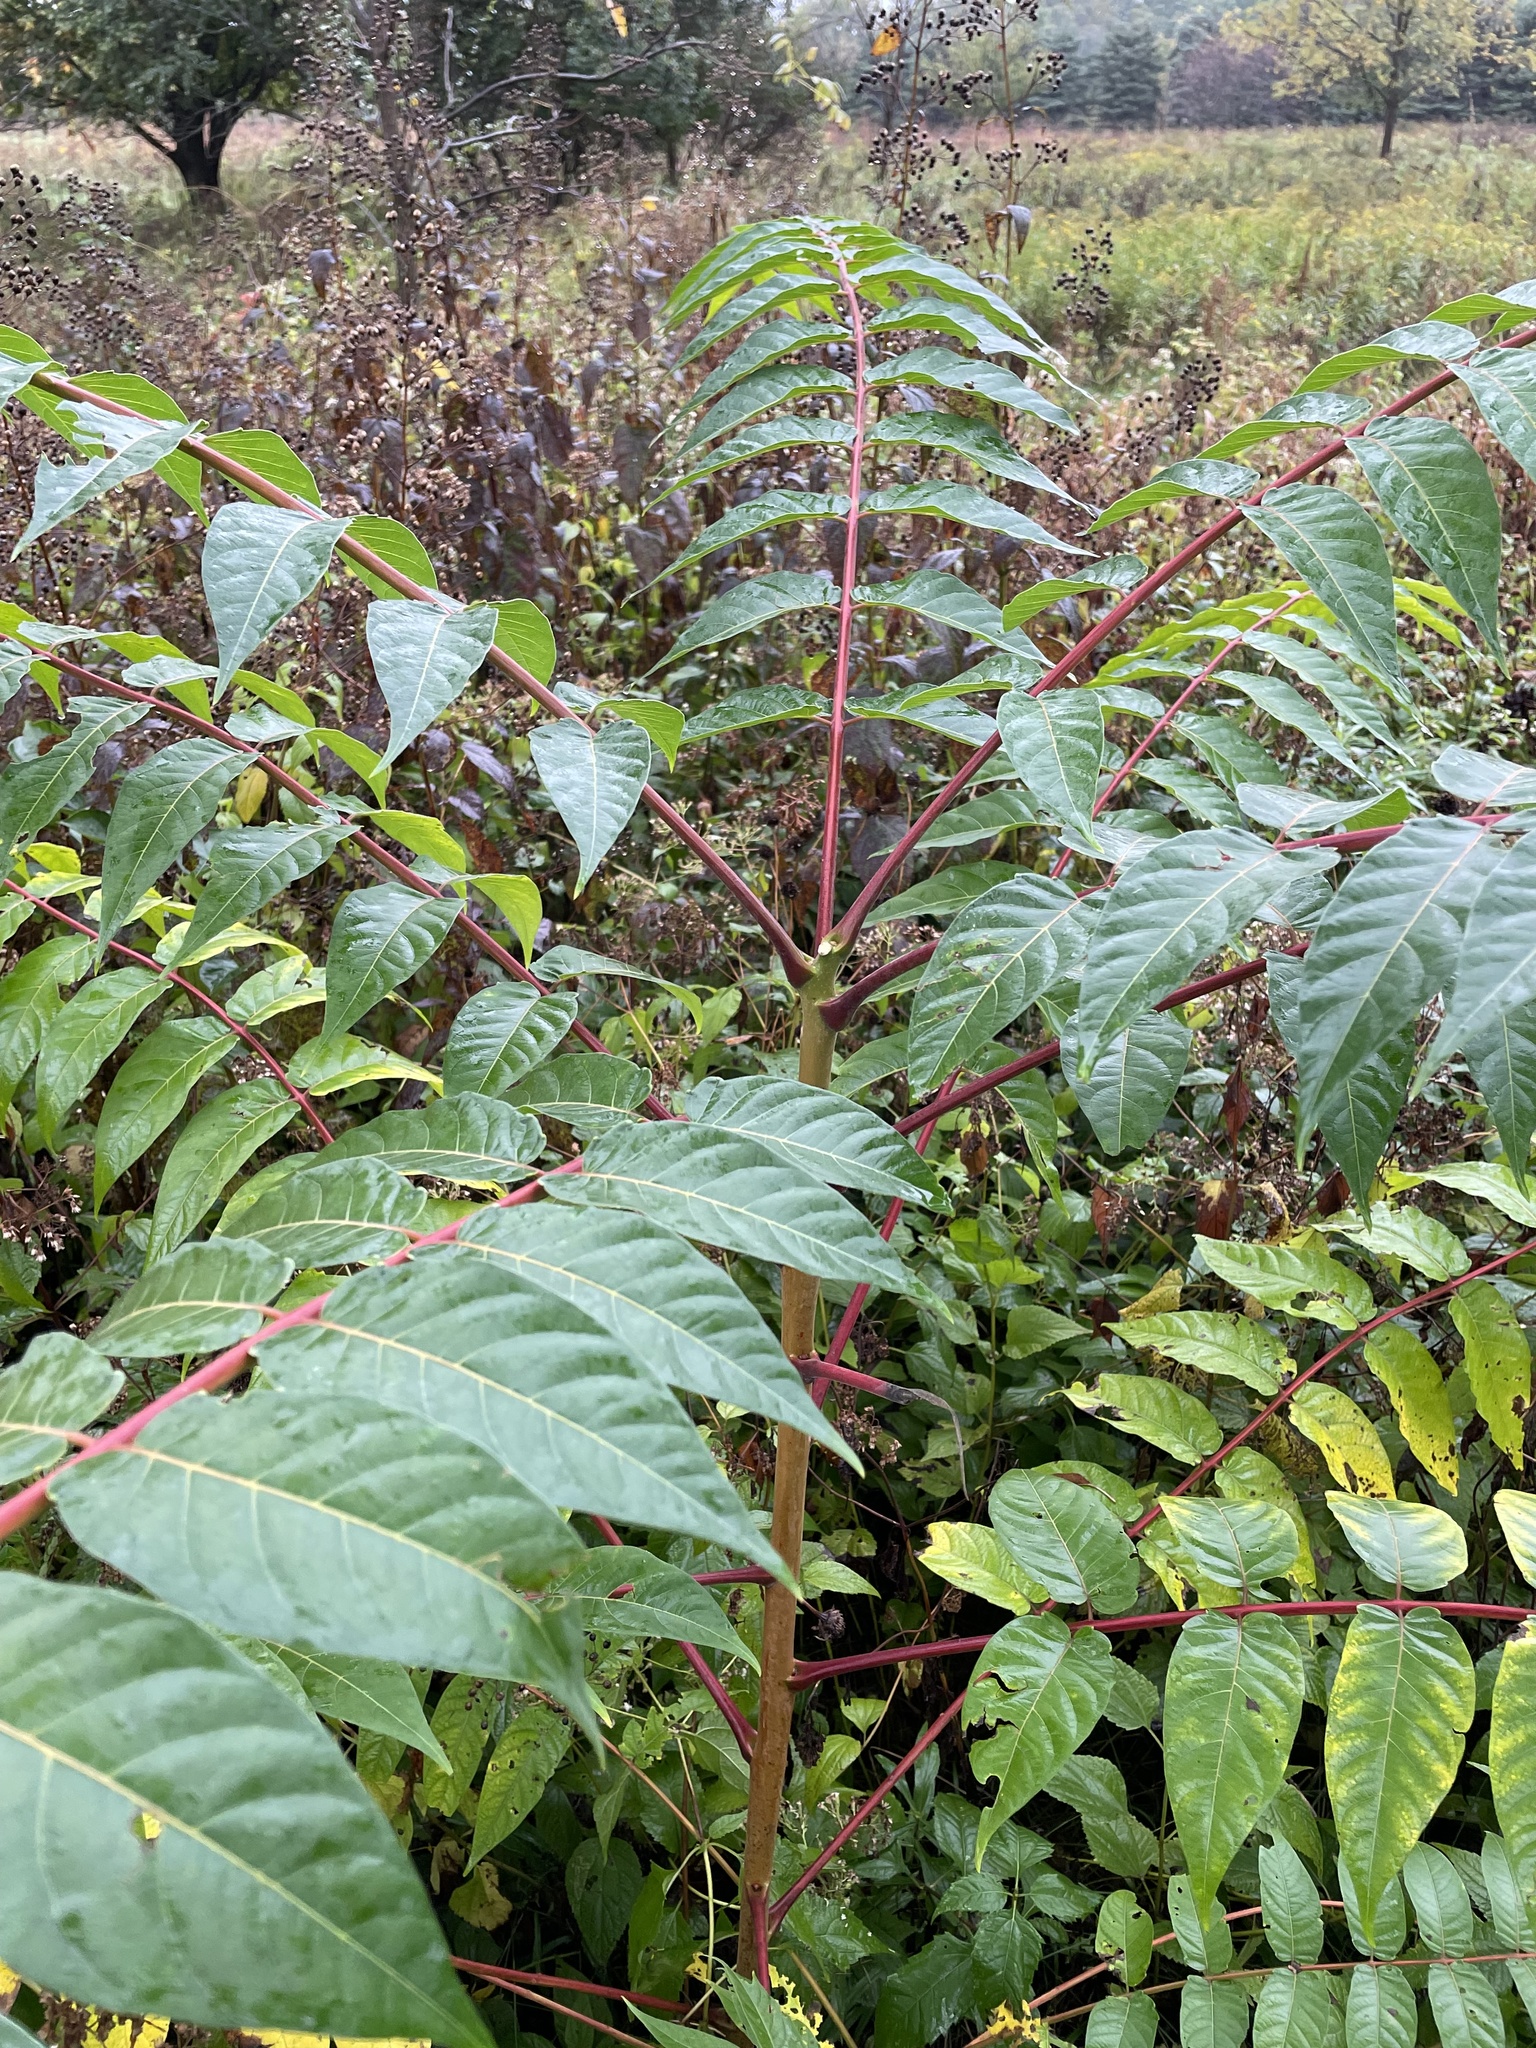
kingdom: Plantae
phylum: Tracheophyta
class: Magnoliopsida
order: Sapindales
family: Simaroubaceae
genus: Ailanthus
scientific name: Ailanthus altissima
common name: Tree-of-heaven
